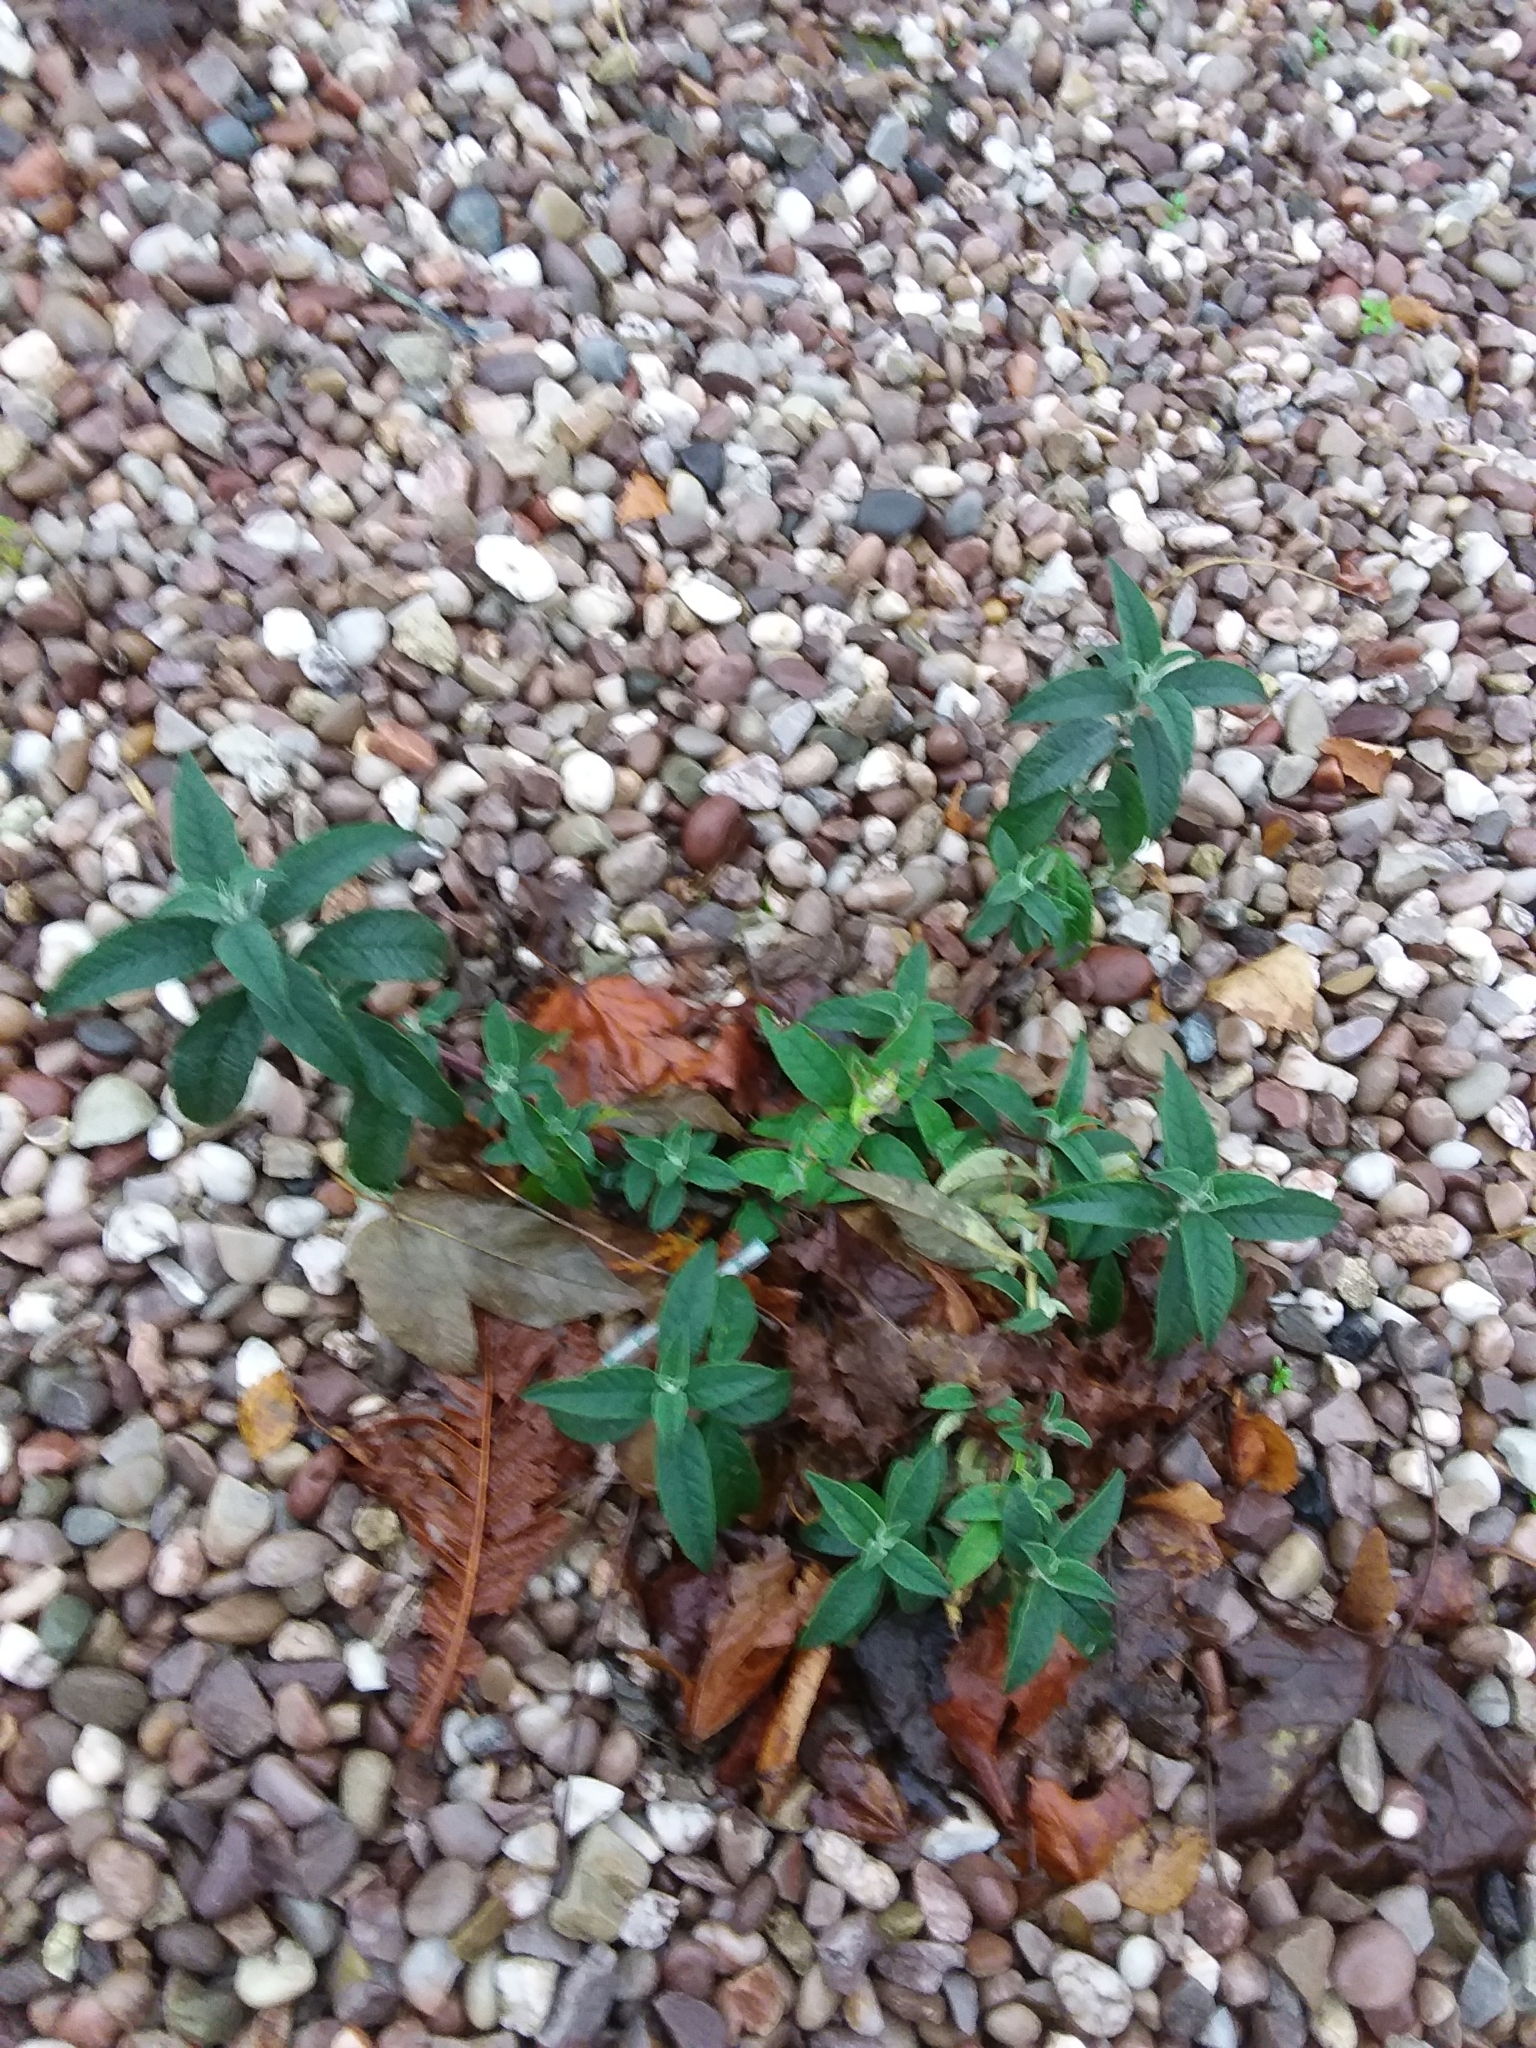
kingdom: Plantae
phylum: Tracheophyta
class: Magnoliopsida
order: Lamiales
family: Scrophulariaceae
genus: Buddleja
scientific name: Buddleja davidii
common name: Butterfly-bush
